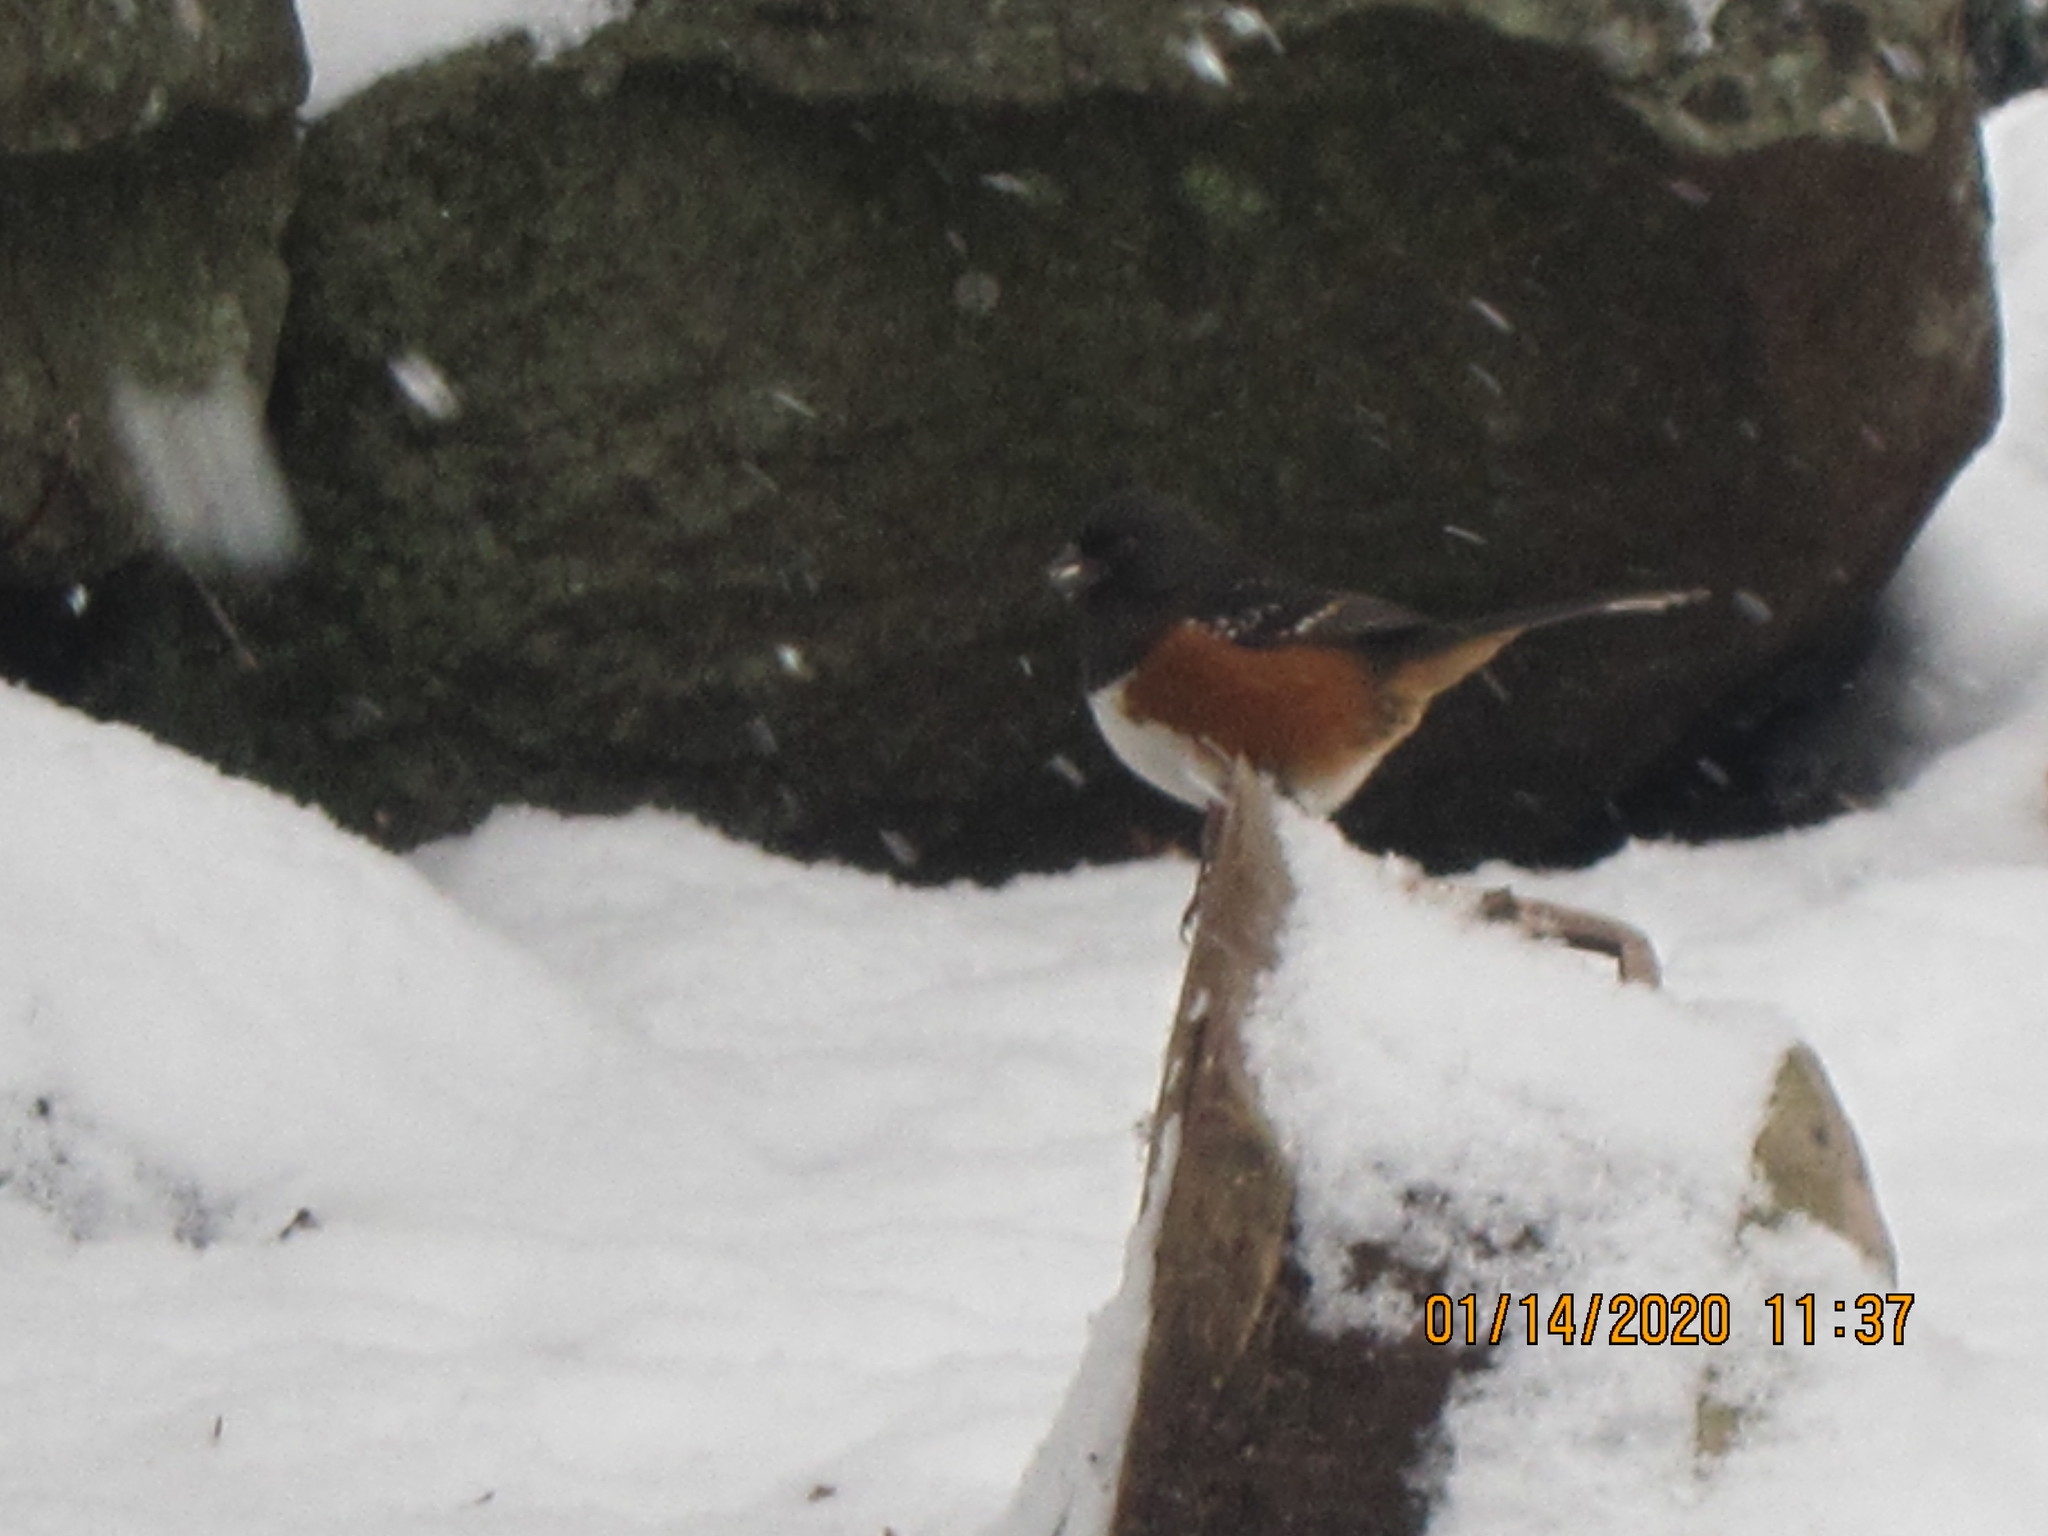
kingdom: Animalia
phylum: Chordata
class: Aves
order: Passeriformes
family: Passerellidae
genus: Pipilo
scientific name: Pipilo maculatus
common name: Spotted towhee
